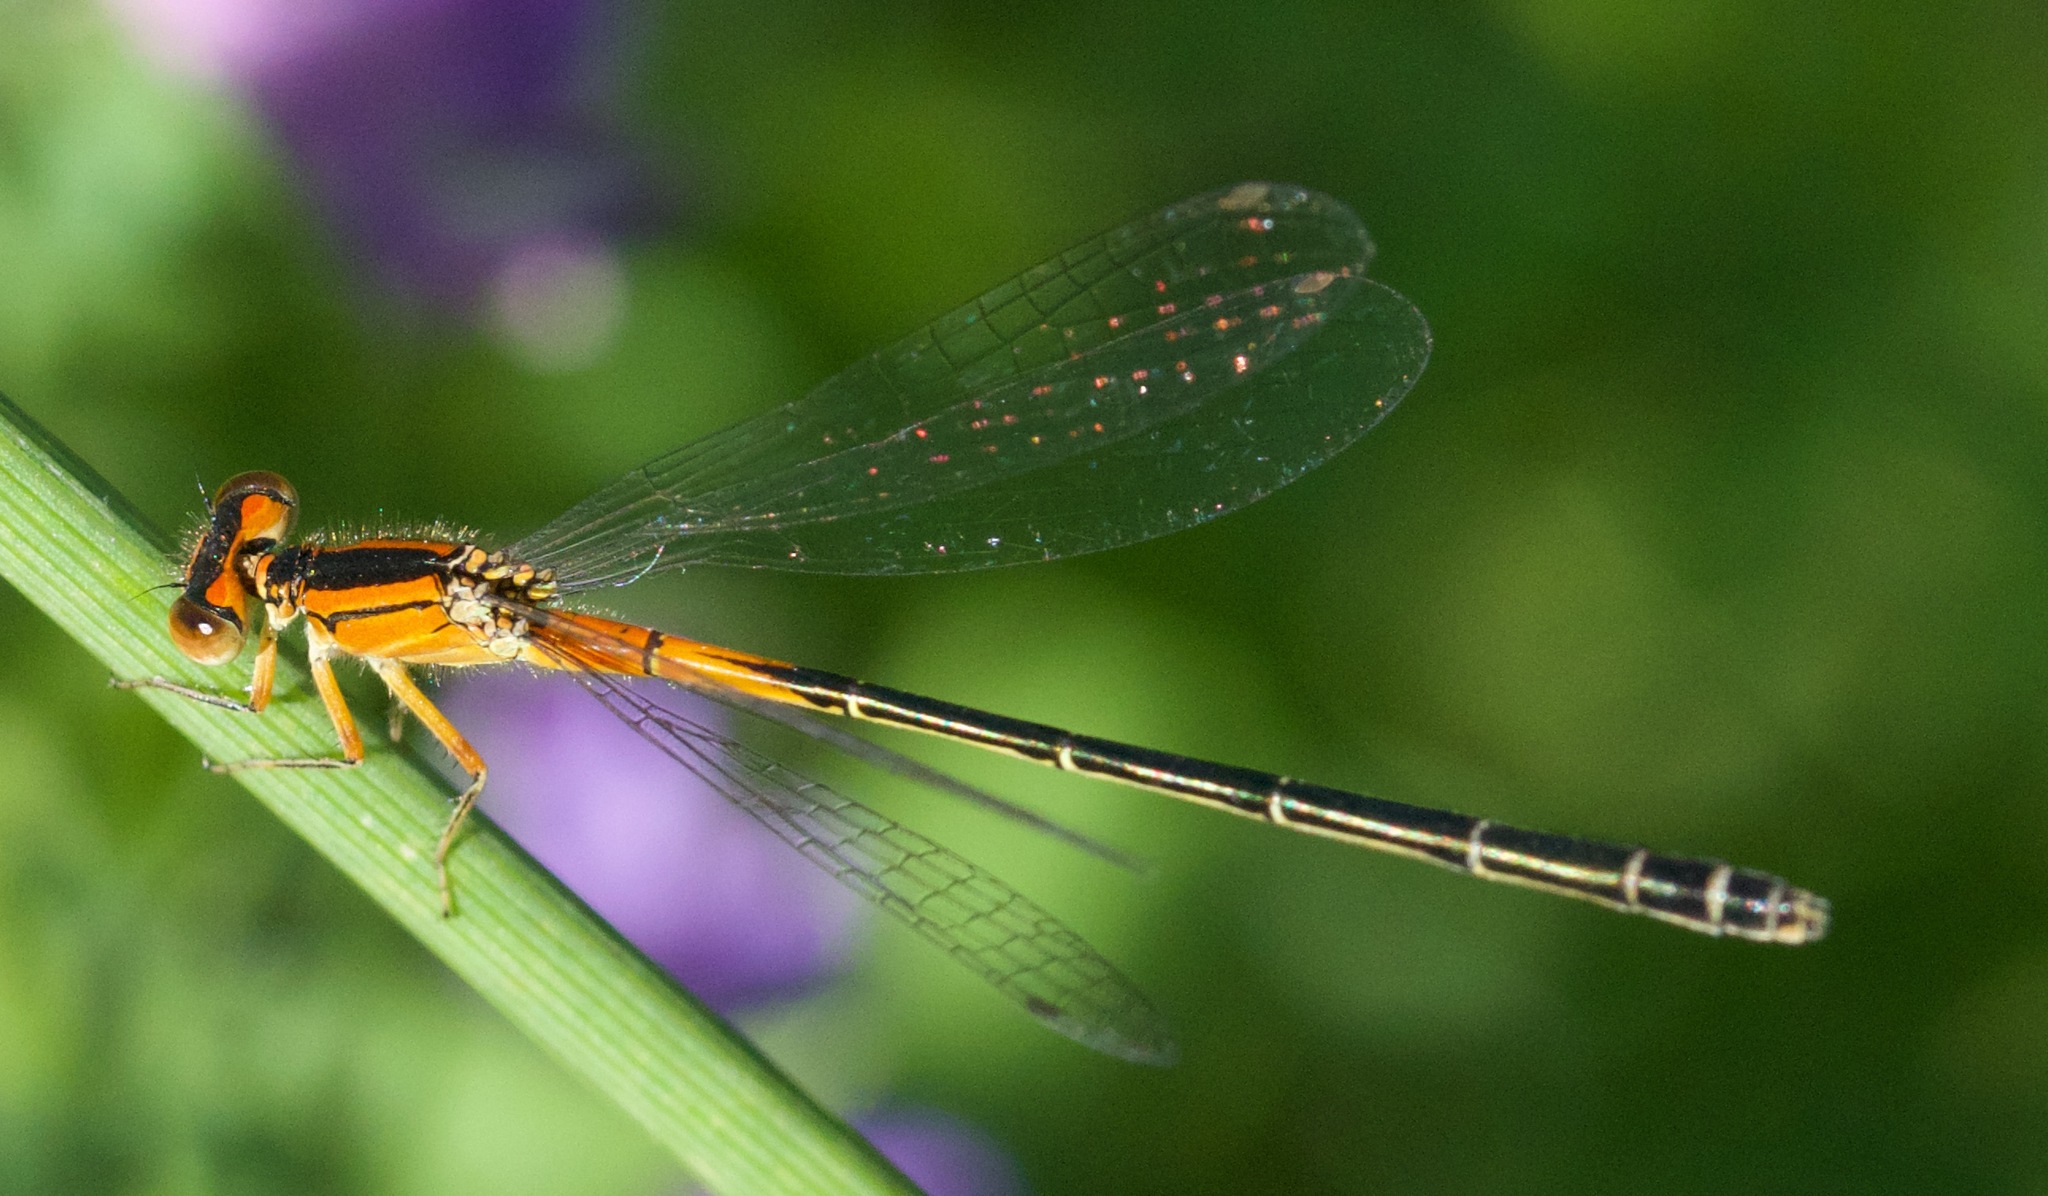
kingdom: Animalia
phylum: Arthropoda
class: Insecta
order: Odonata
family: Coenagrionidae
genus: Ischnura
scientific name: Ischnura verticalis
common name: Eastern forktail
